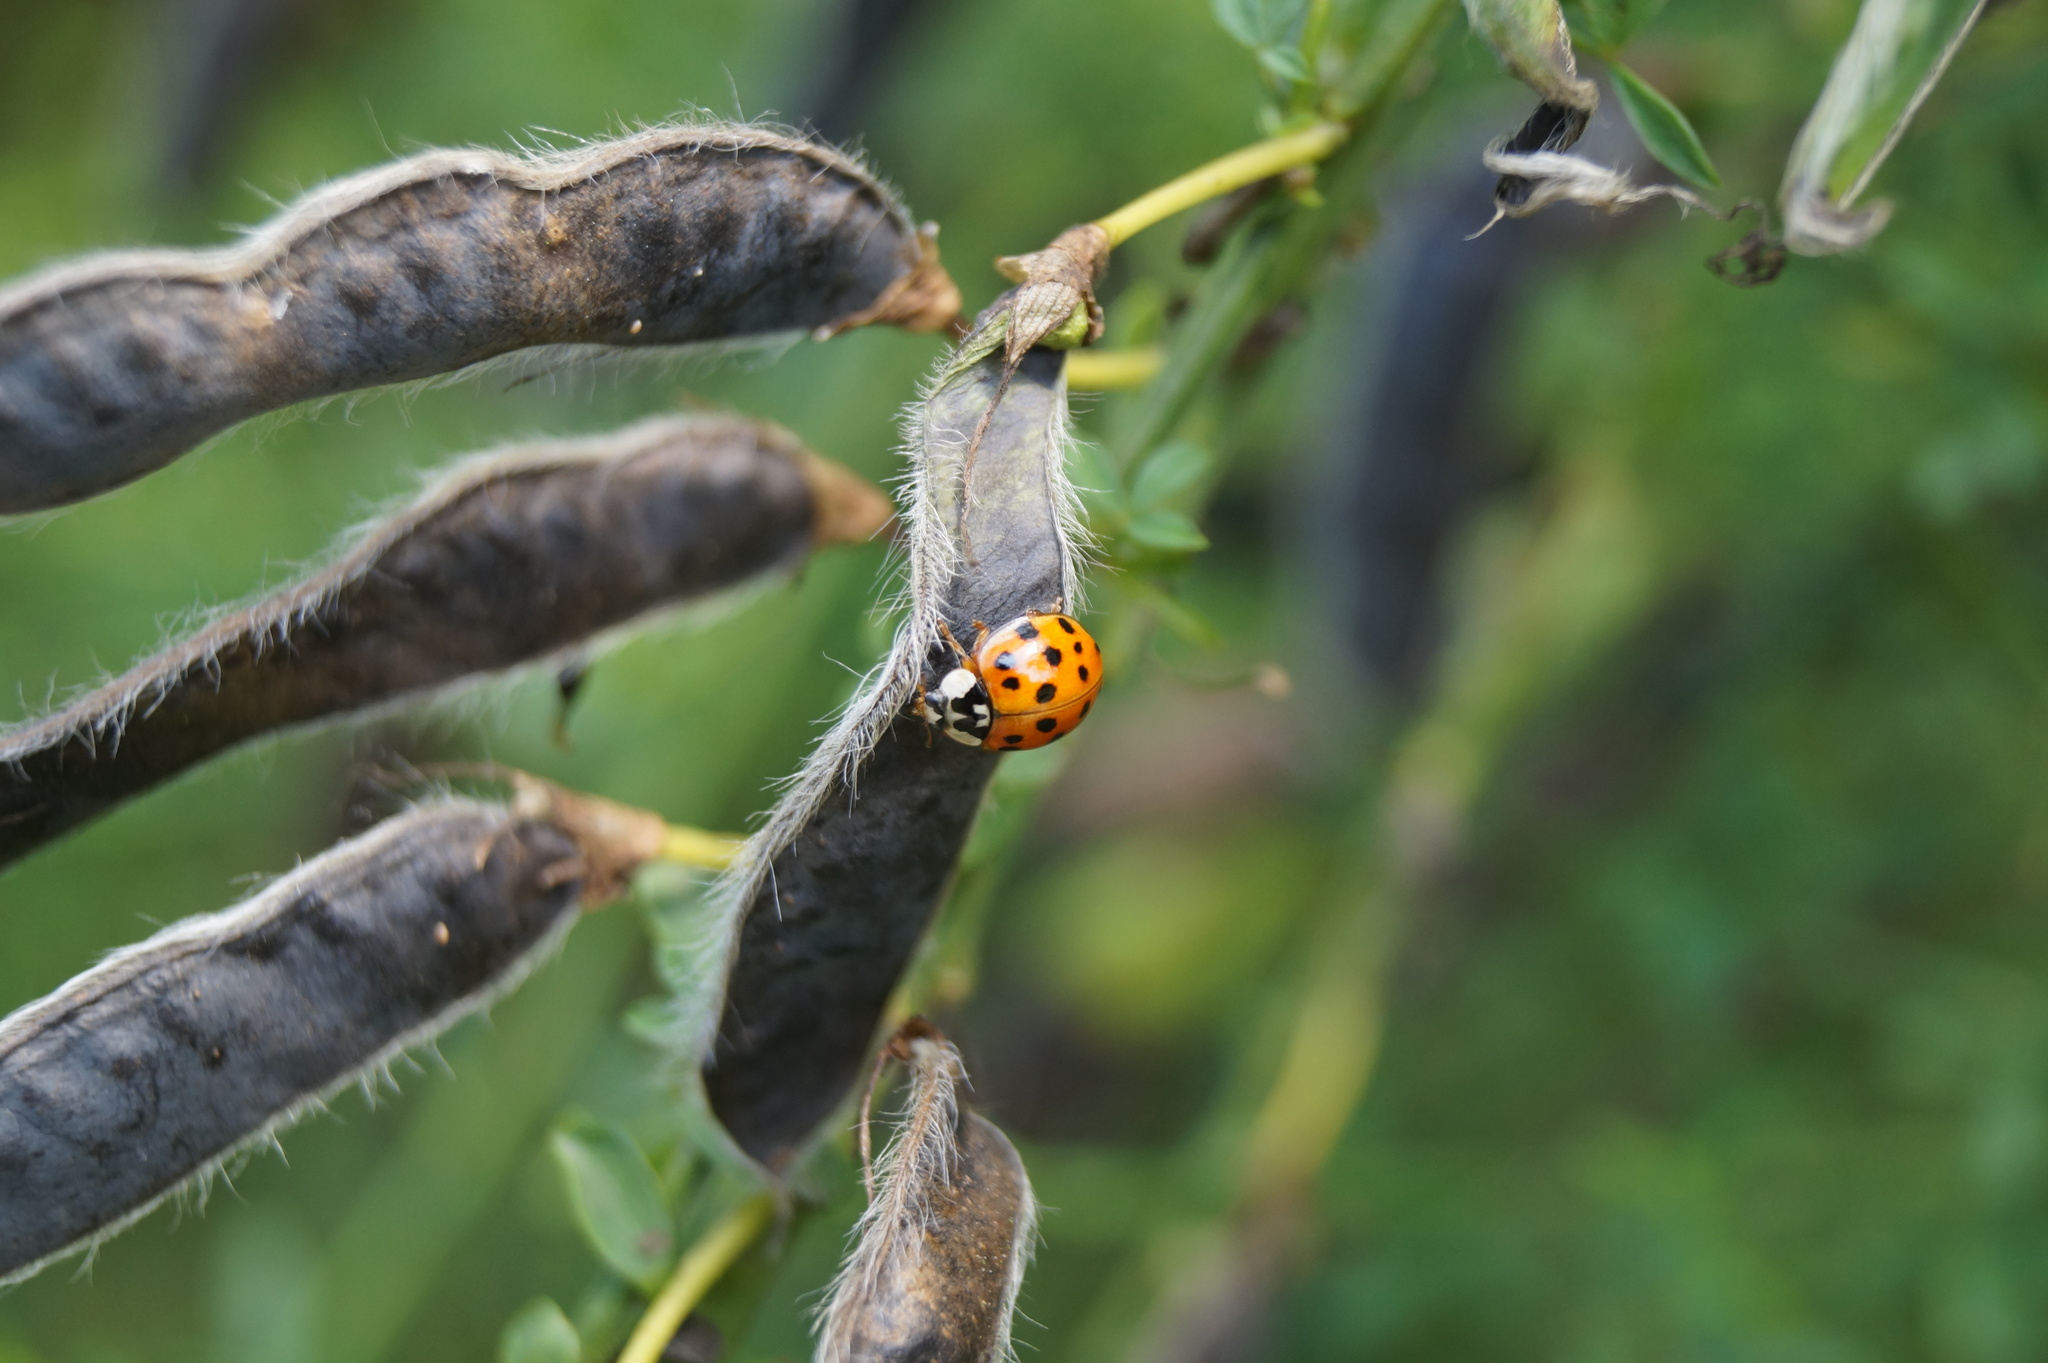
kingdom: Animalia
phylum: Arthropoda
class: Insecta
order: Coleoptera
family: Coccinellidae
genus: Harmonia
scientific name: Harmonia axyridis
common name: Harlequin ladybird
